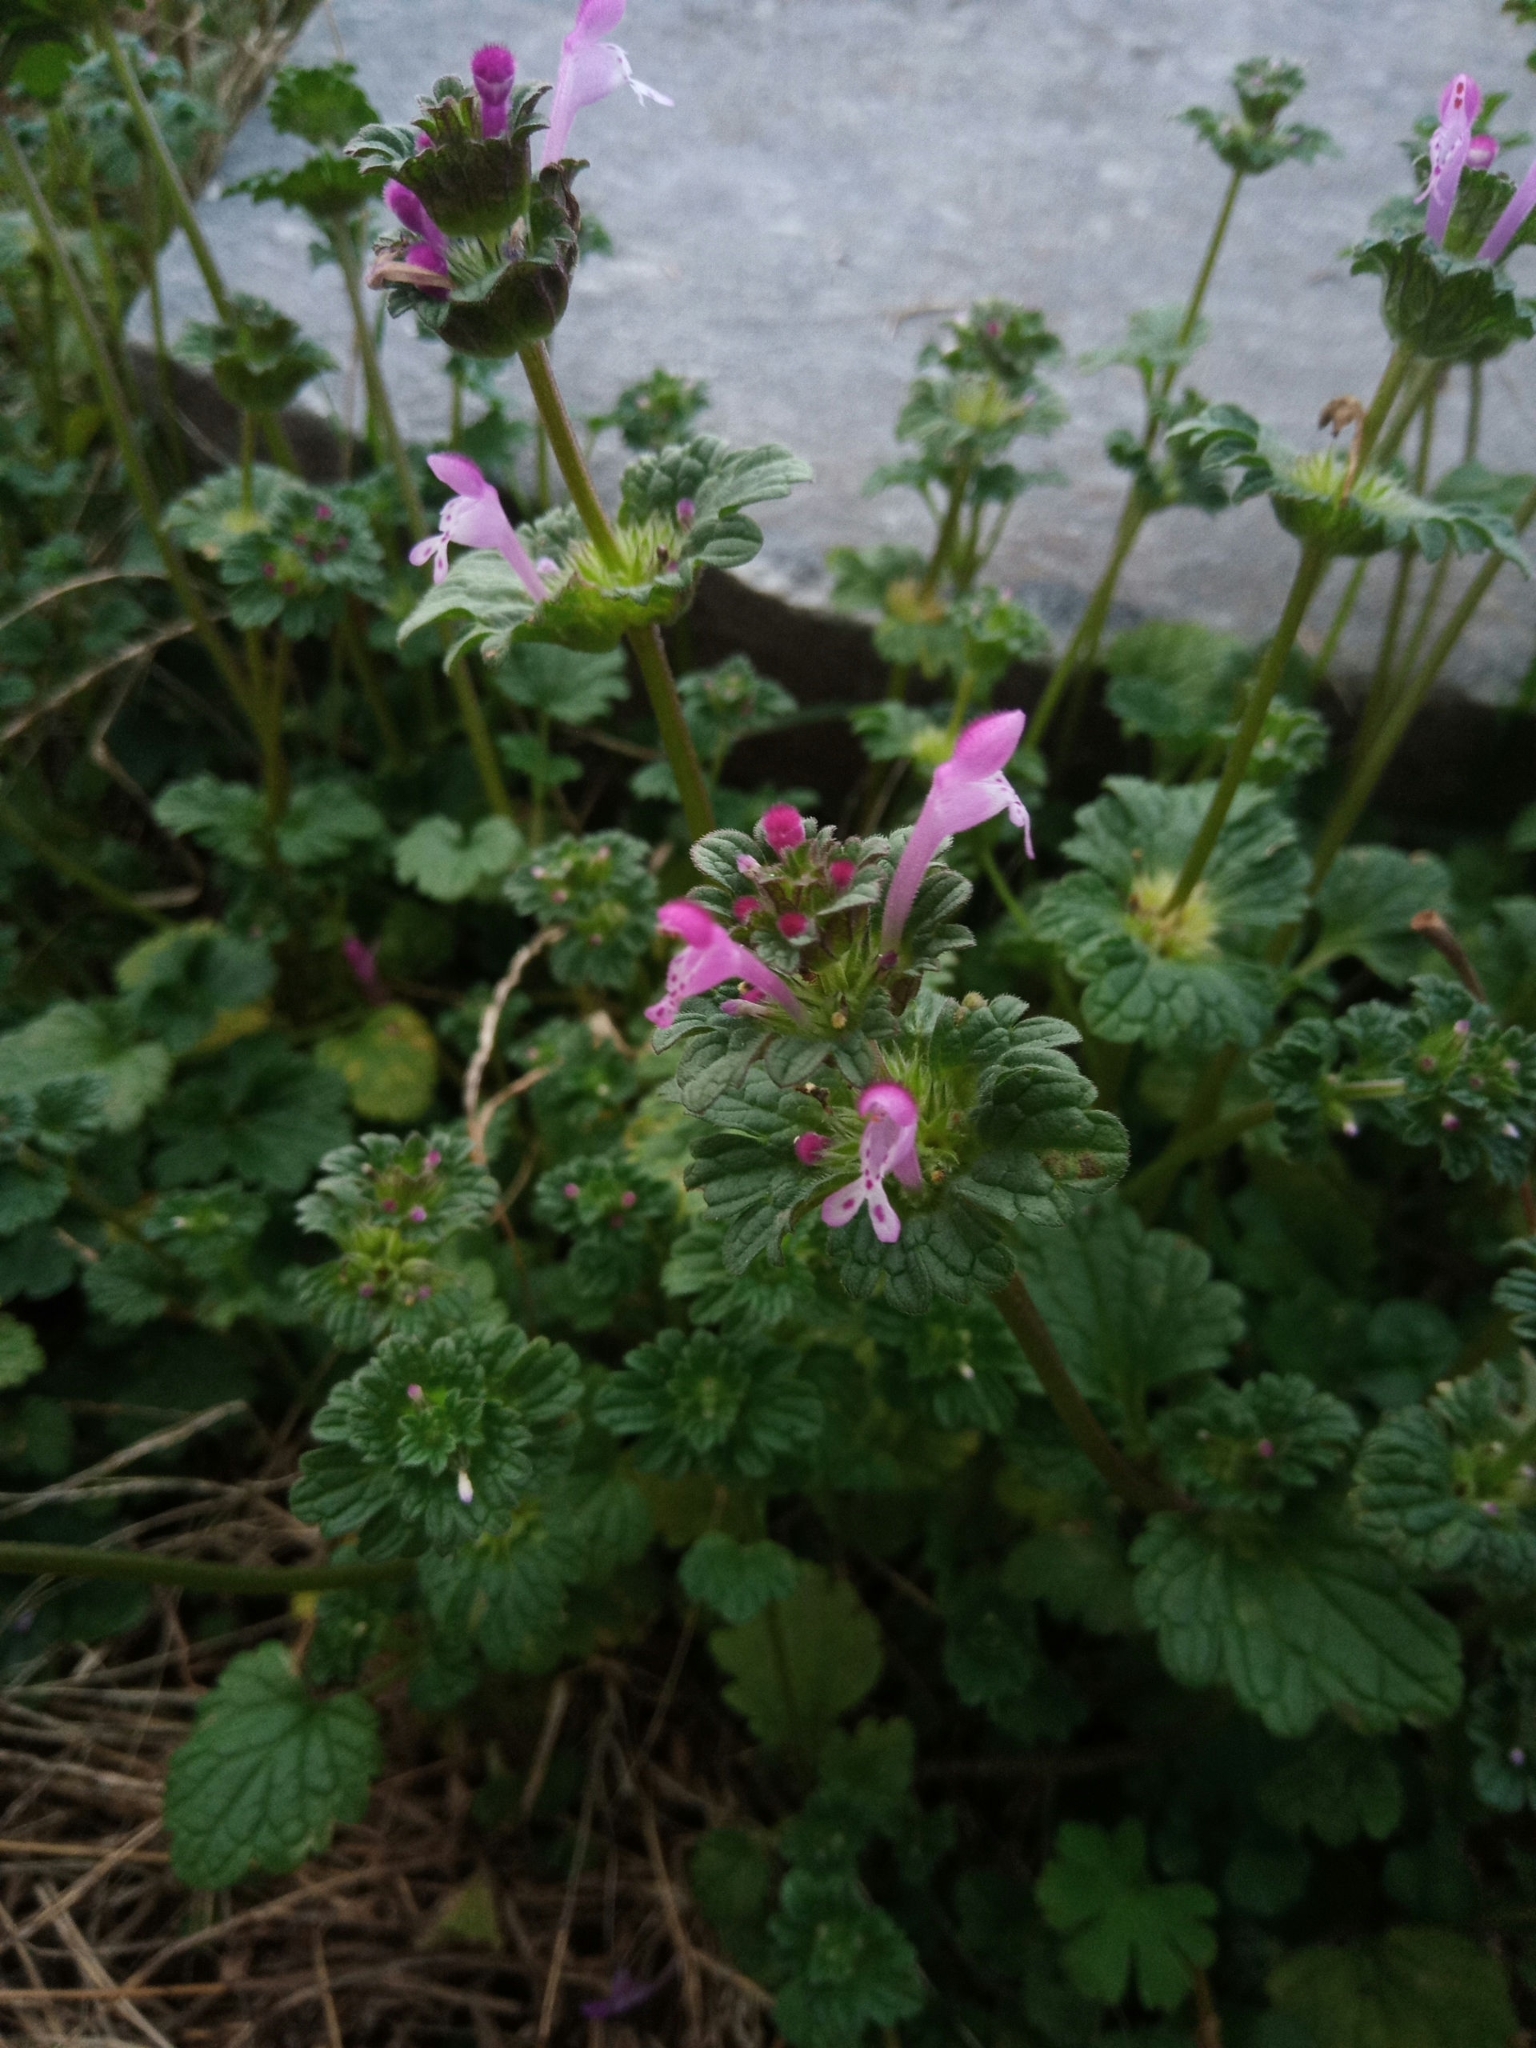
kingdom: Plantae
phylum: Tracheophyta
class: Magnoliopsida
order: Lamiales
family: Lamiaceae
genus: Lamium
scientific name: Lamium amplexicaule
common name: Henbit dead-nettle
